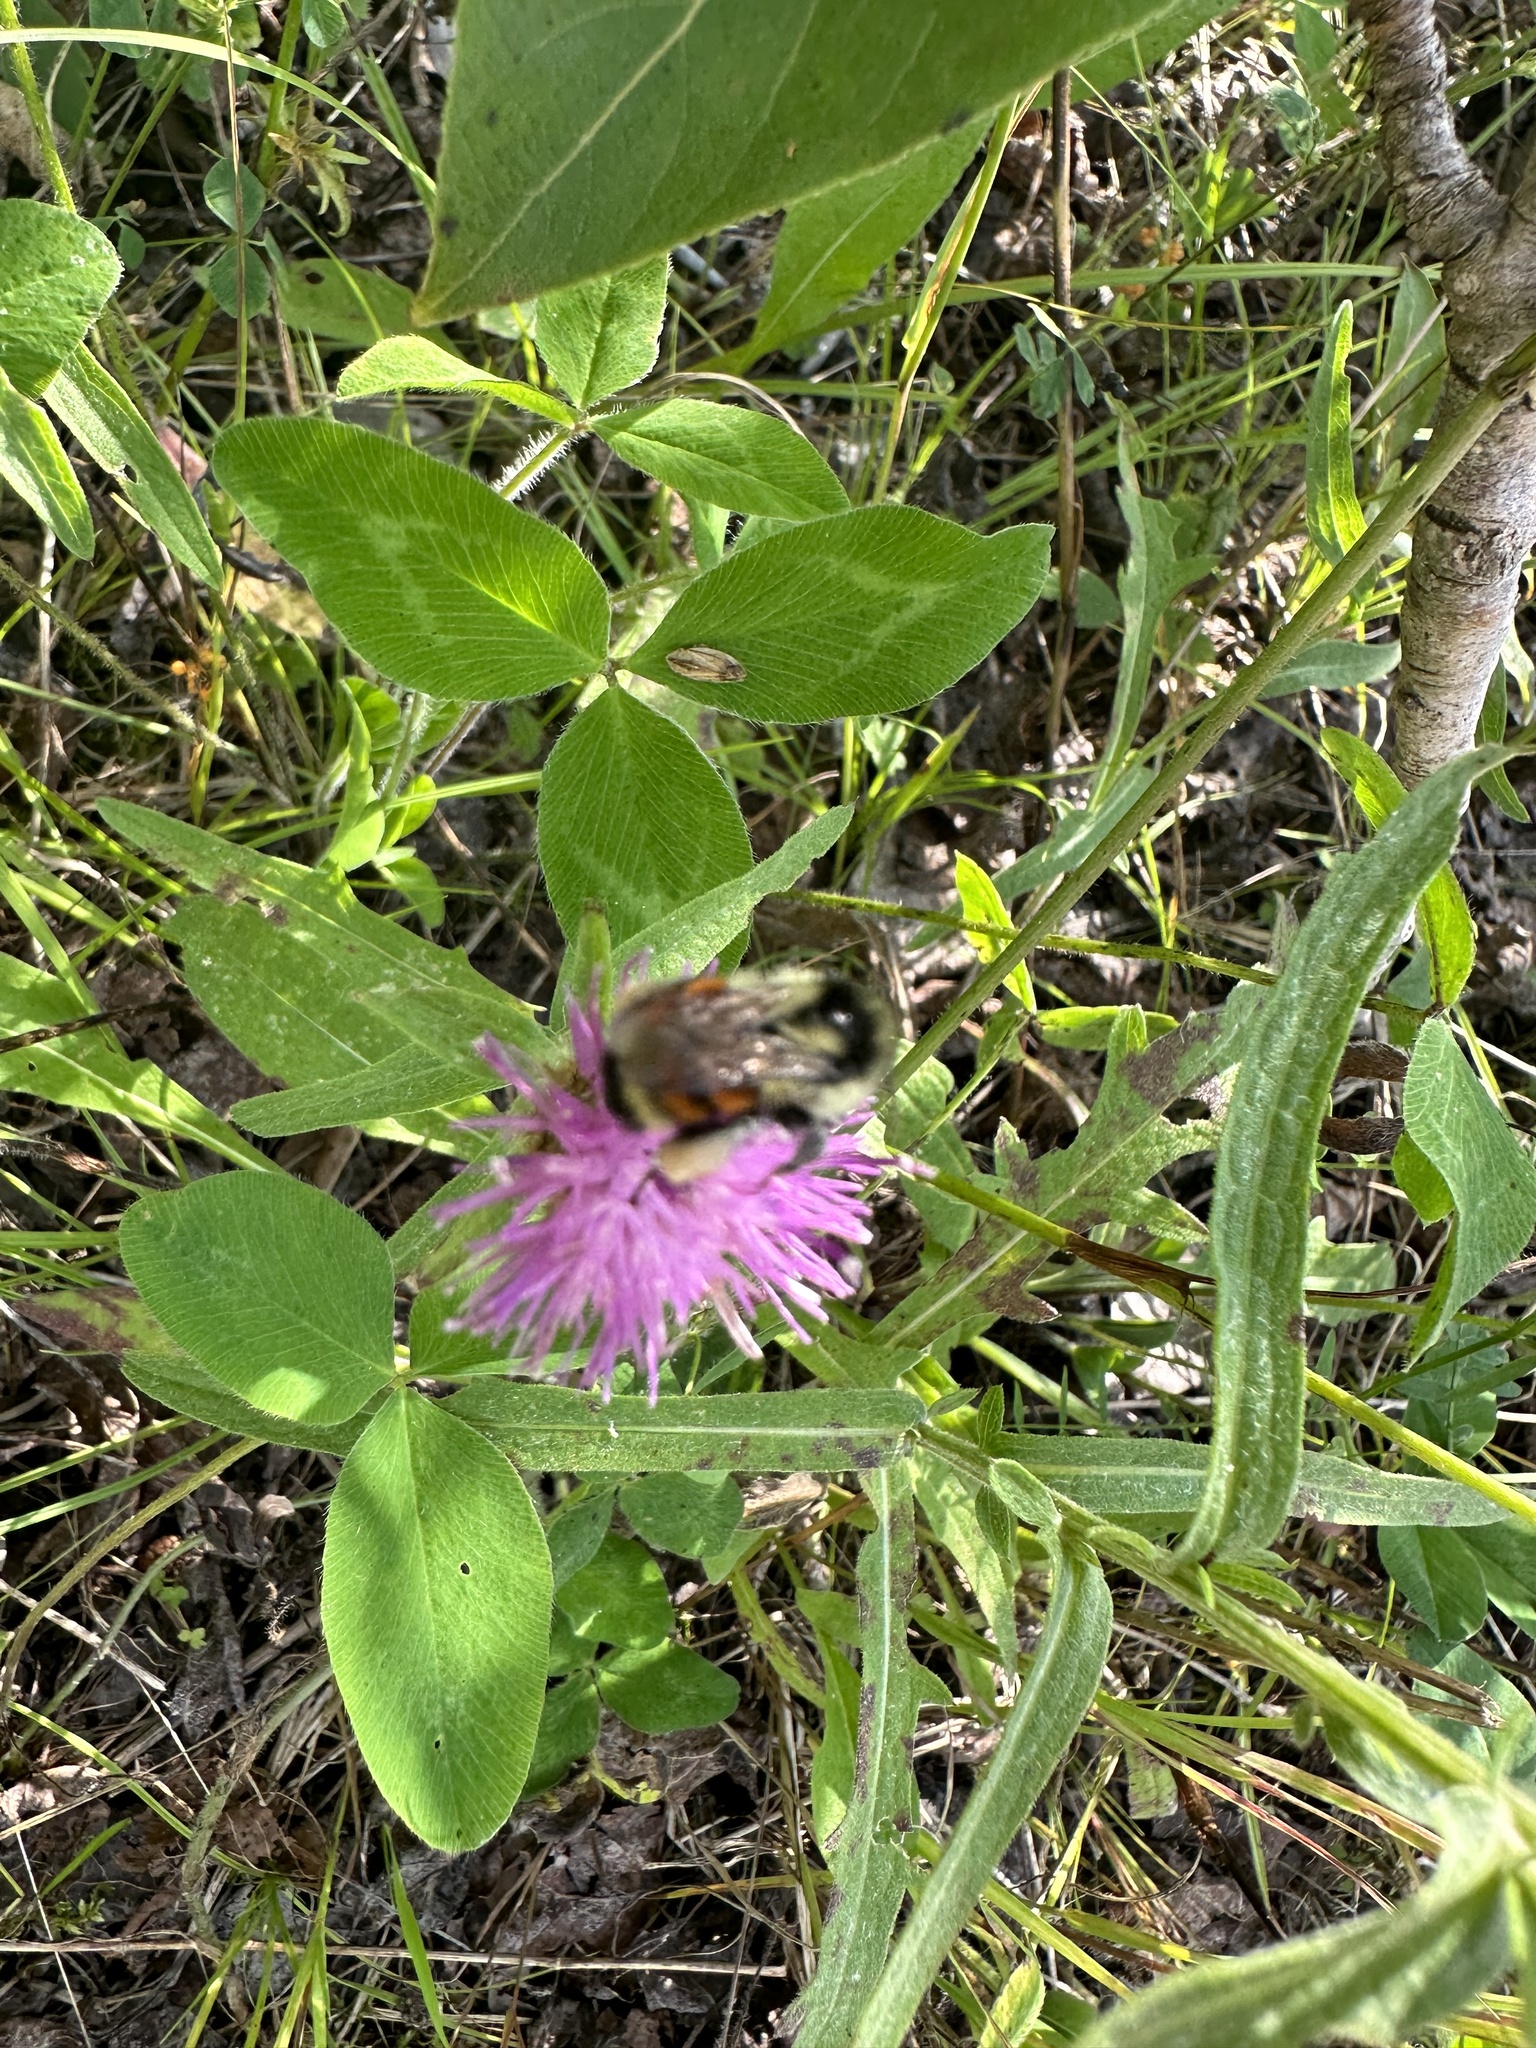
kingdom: Animalia
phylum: Arthropoda
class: Insecta
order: Hymenoptera
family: Apidae
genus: Bombus
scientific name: Bombus ternarius
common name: Tri-colored bumble bee
